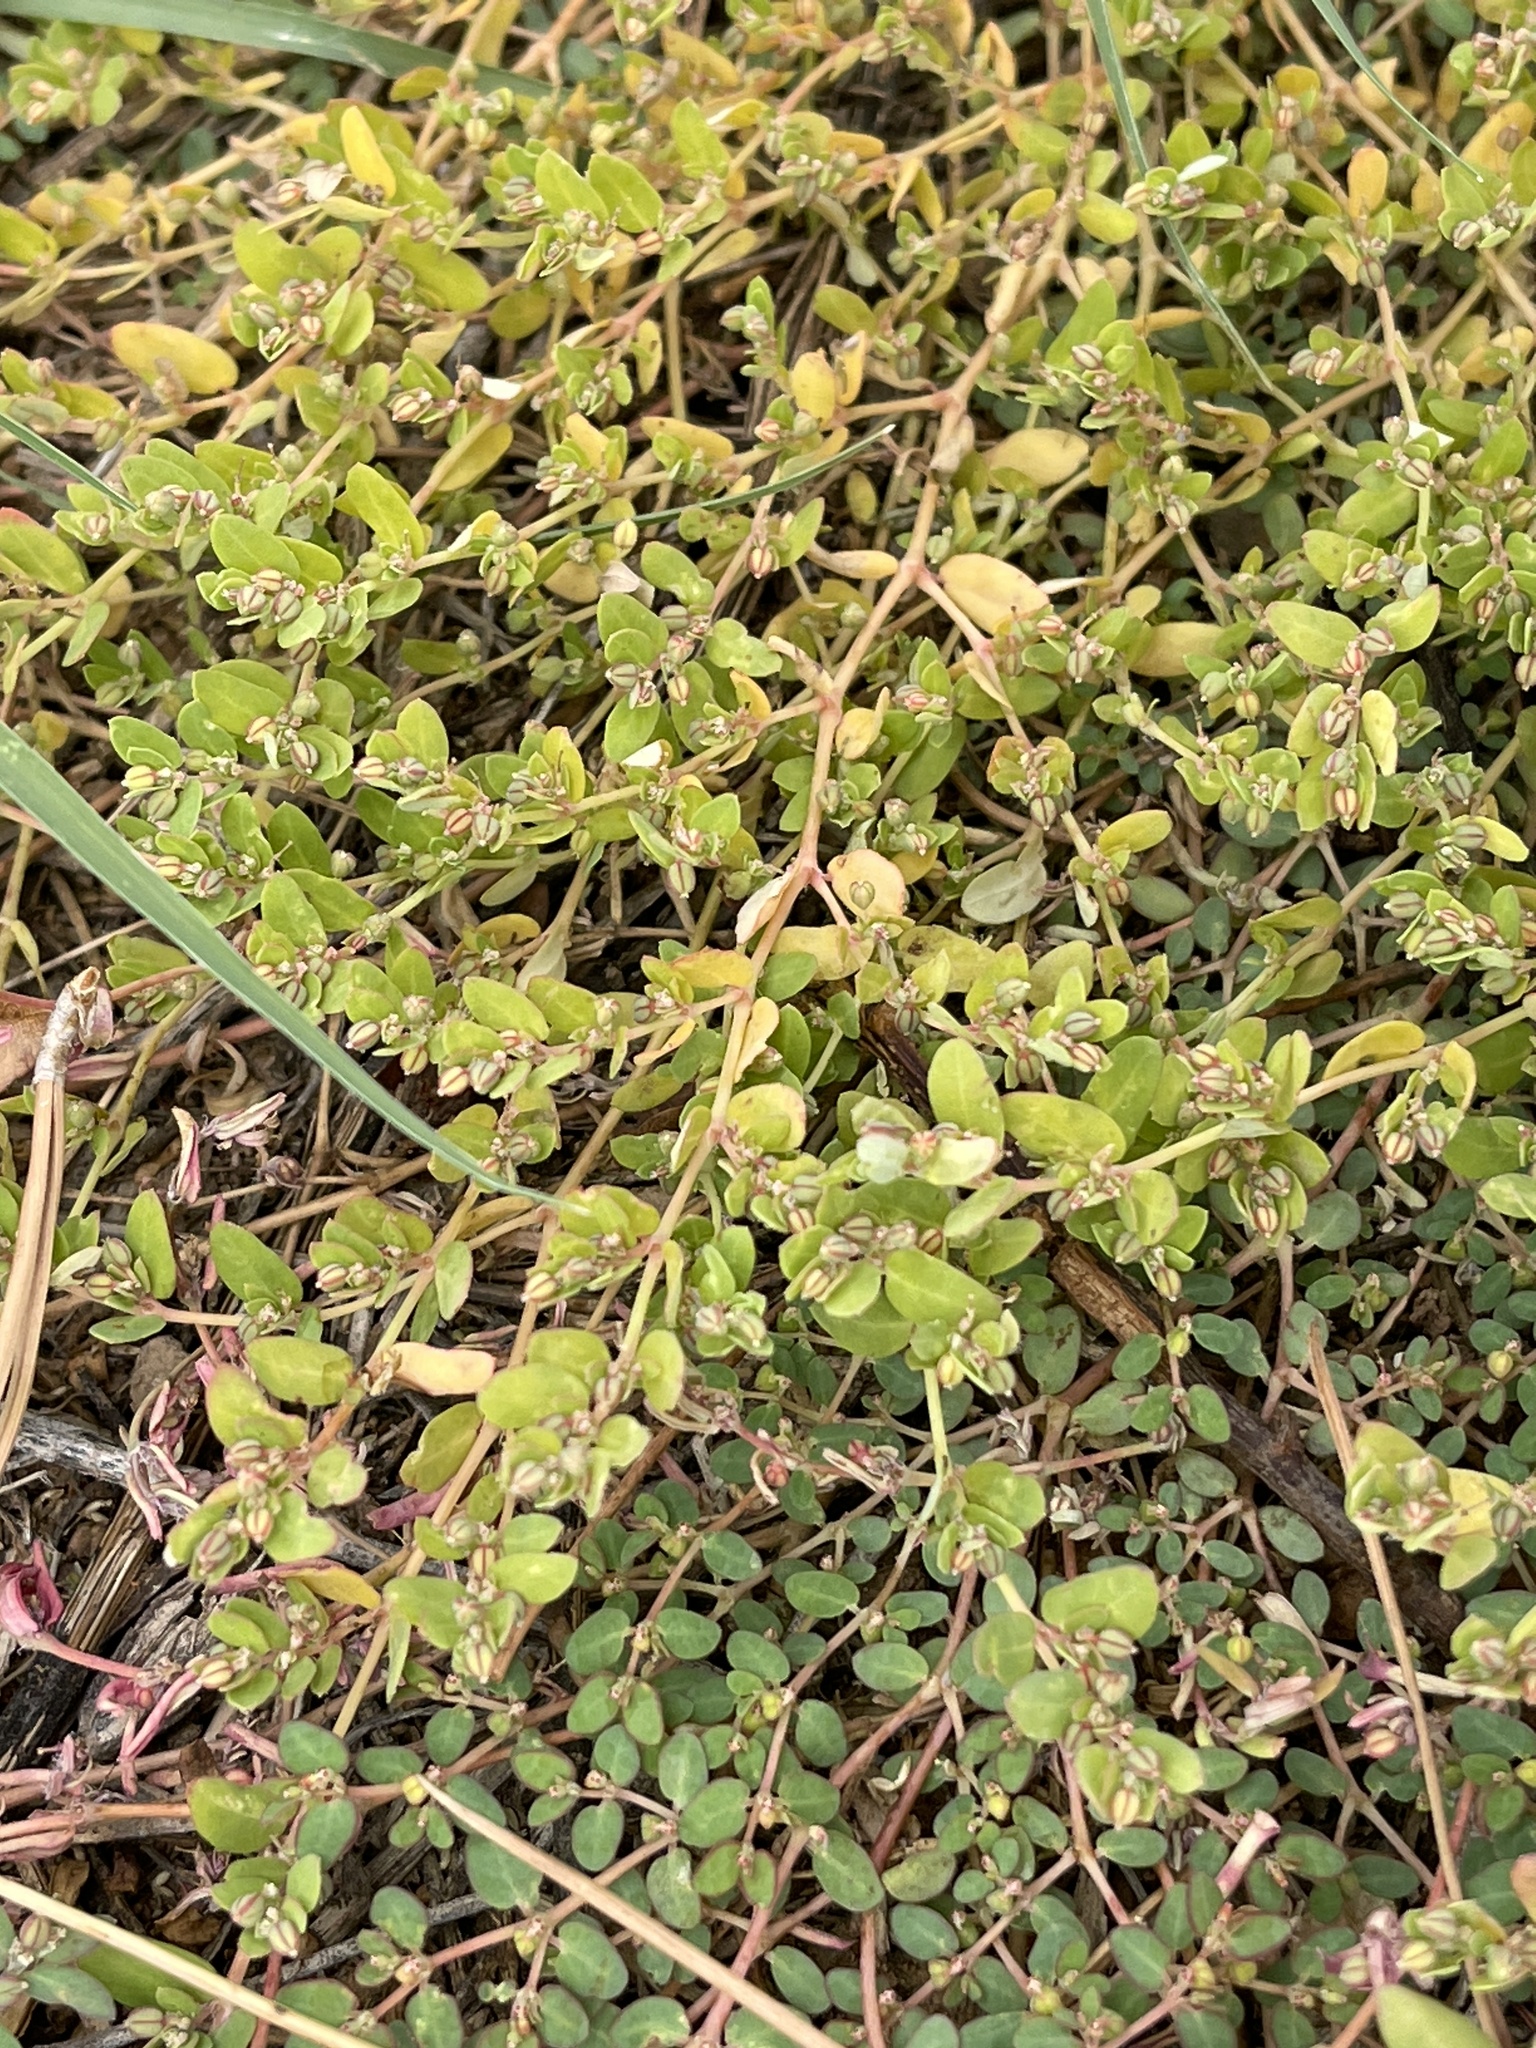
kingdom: Plantae
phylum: Tracheophyta
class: Magnoliopsida
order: Malpighiales
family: Euphorbiaceae
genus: Euphorbia
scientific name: Euphorbia serpens
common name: Matted sandmat
